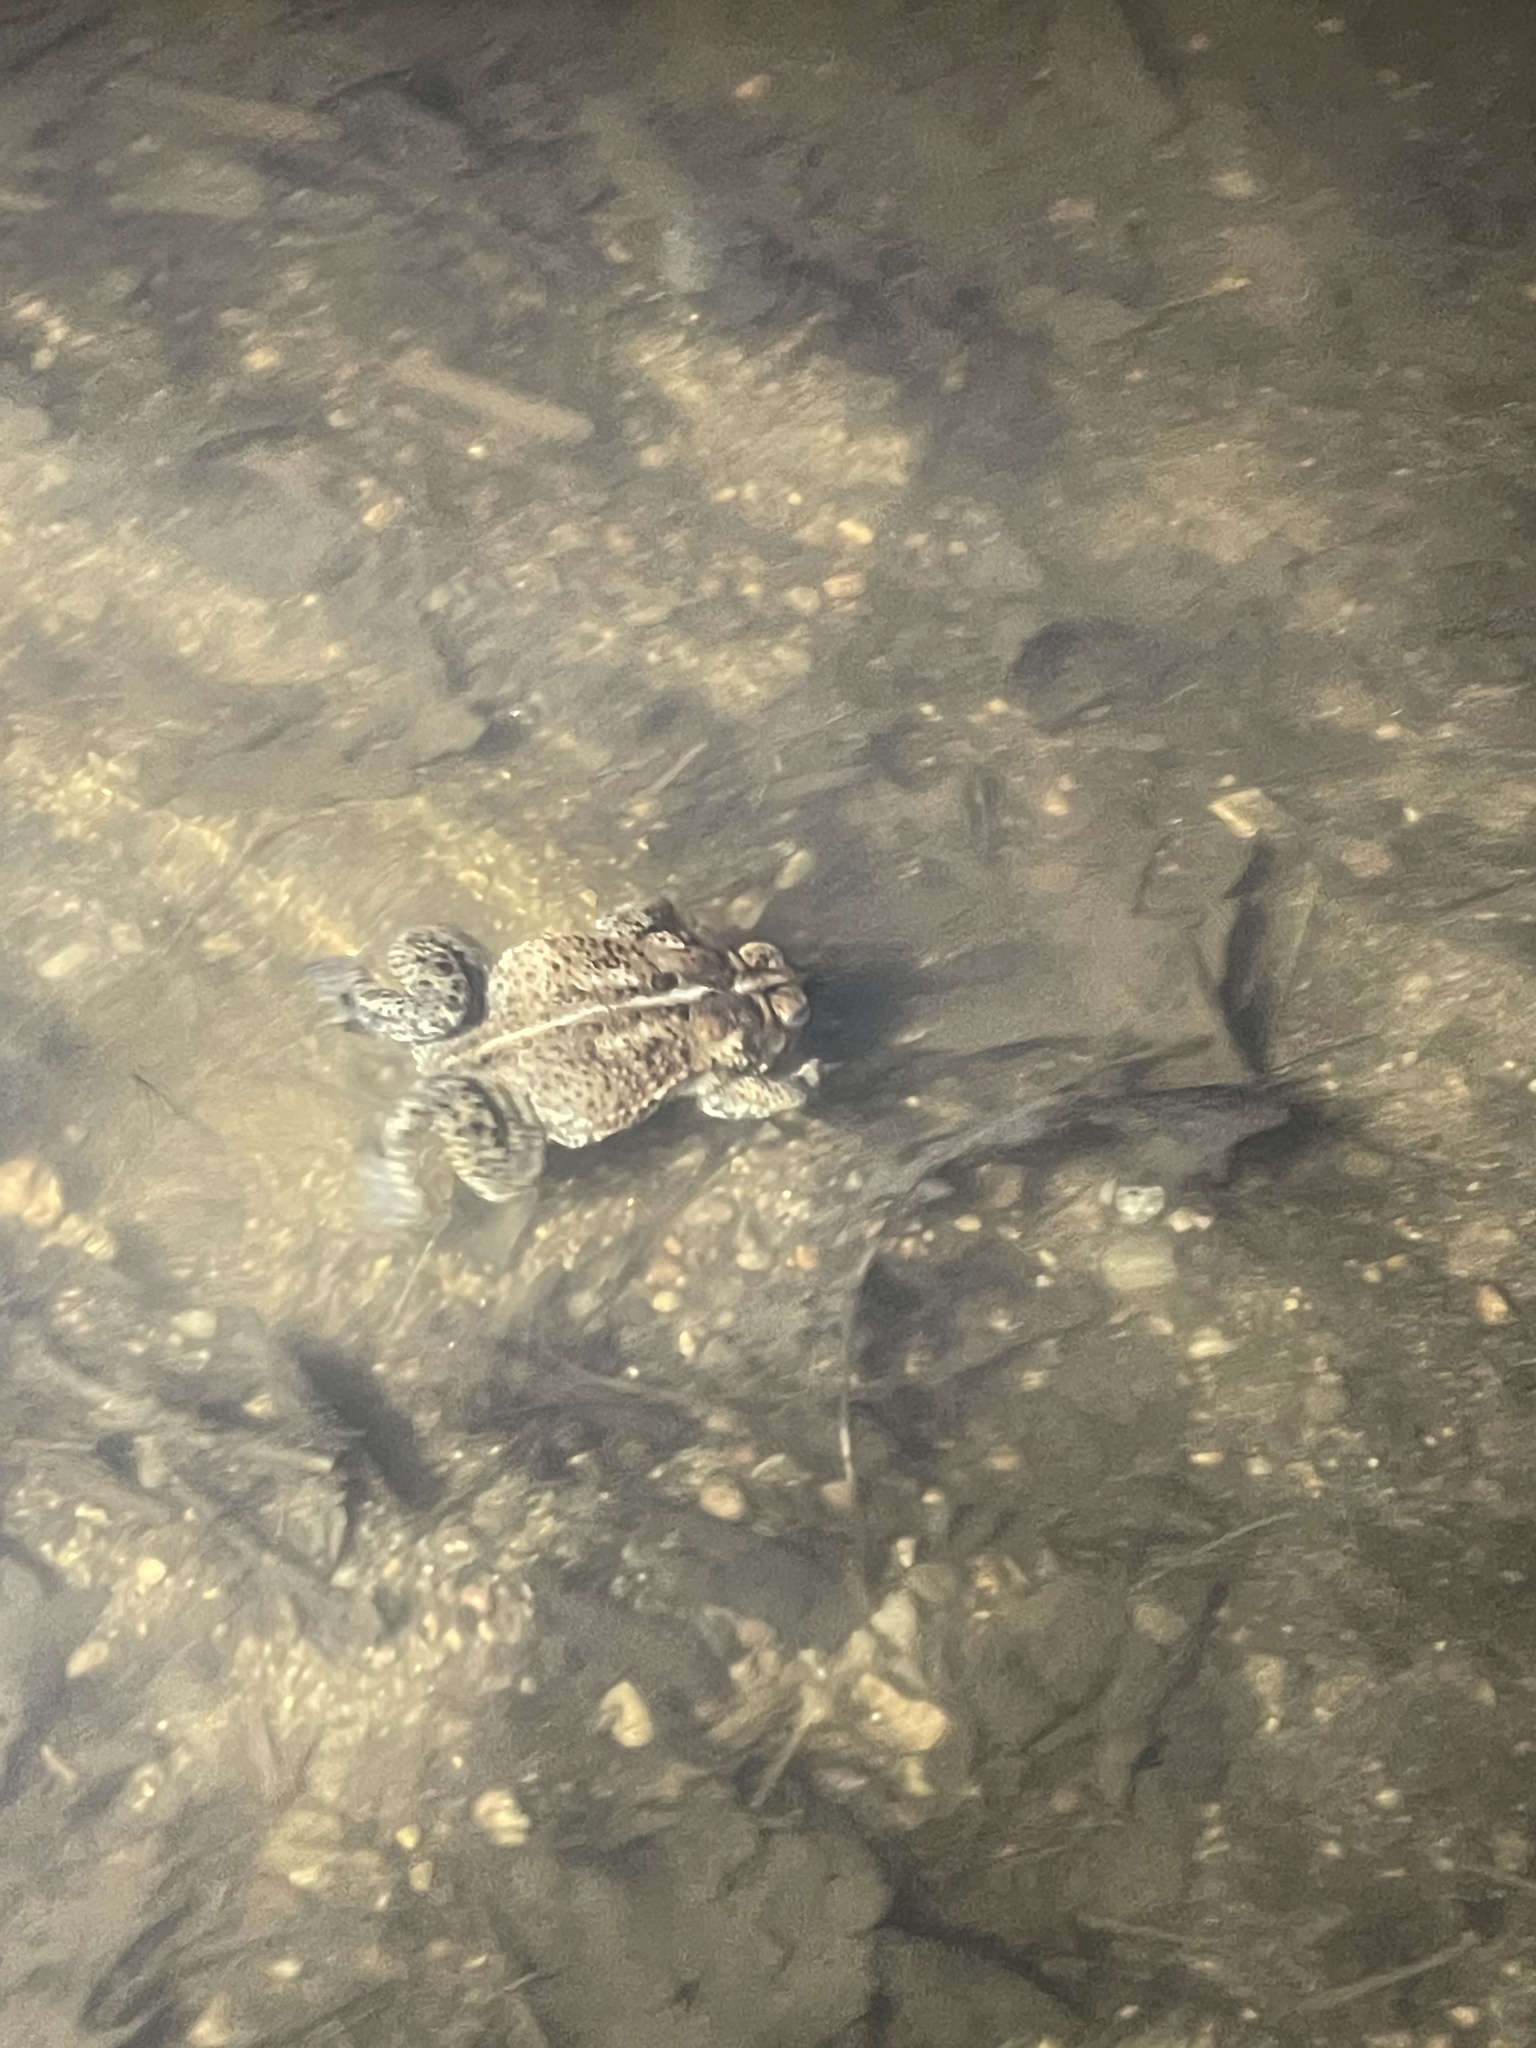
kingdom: Animalia
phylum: Chordata
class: Amphibia
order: Anura
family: Bufonidae
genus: Anaxyrus
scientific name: Anaxyrus americanus
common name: American toad
